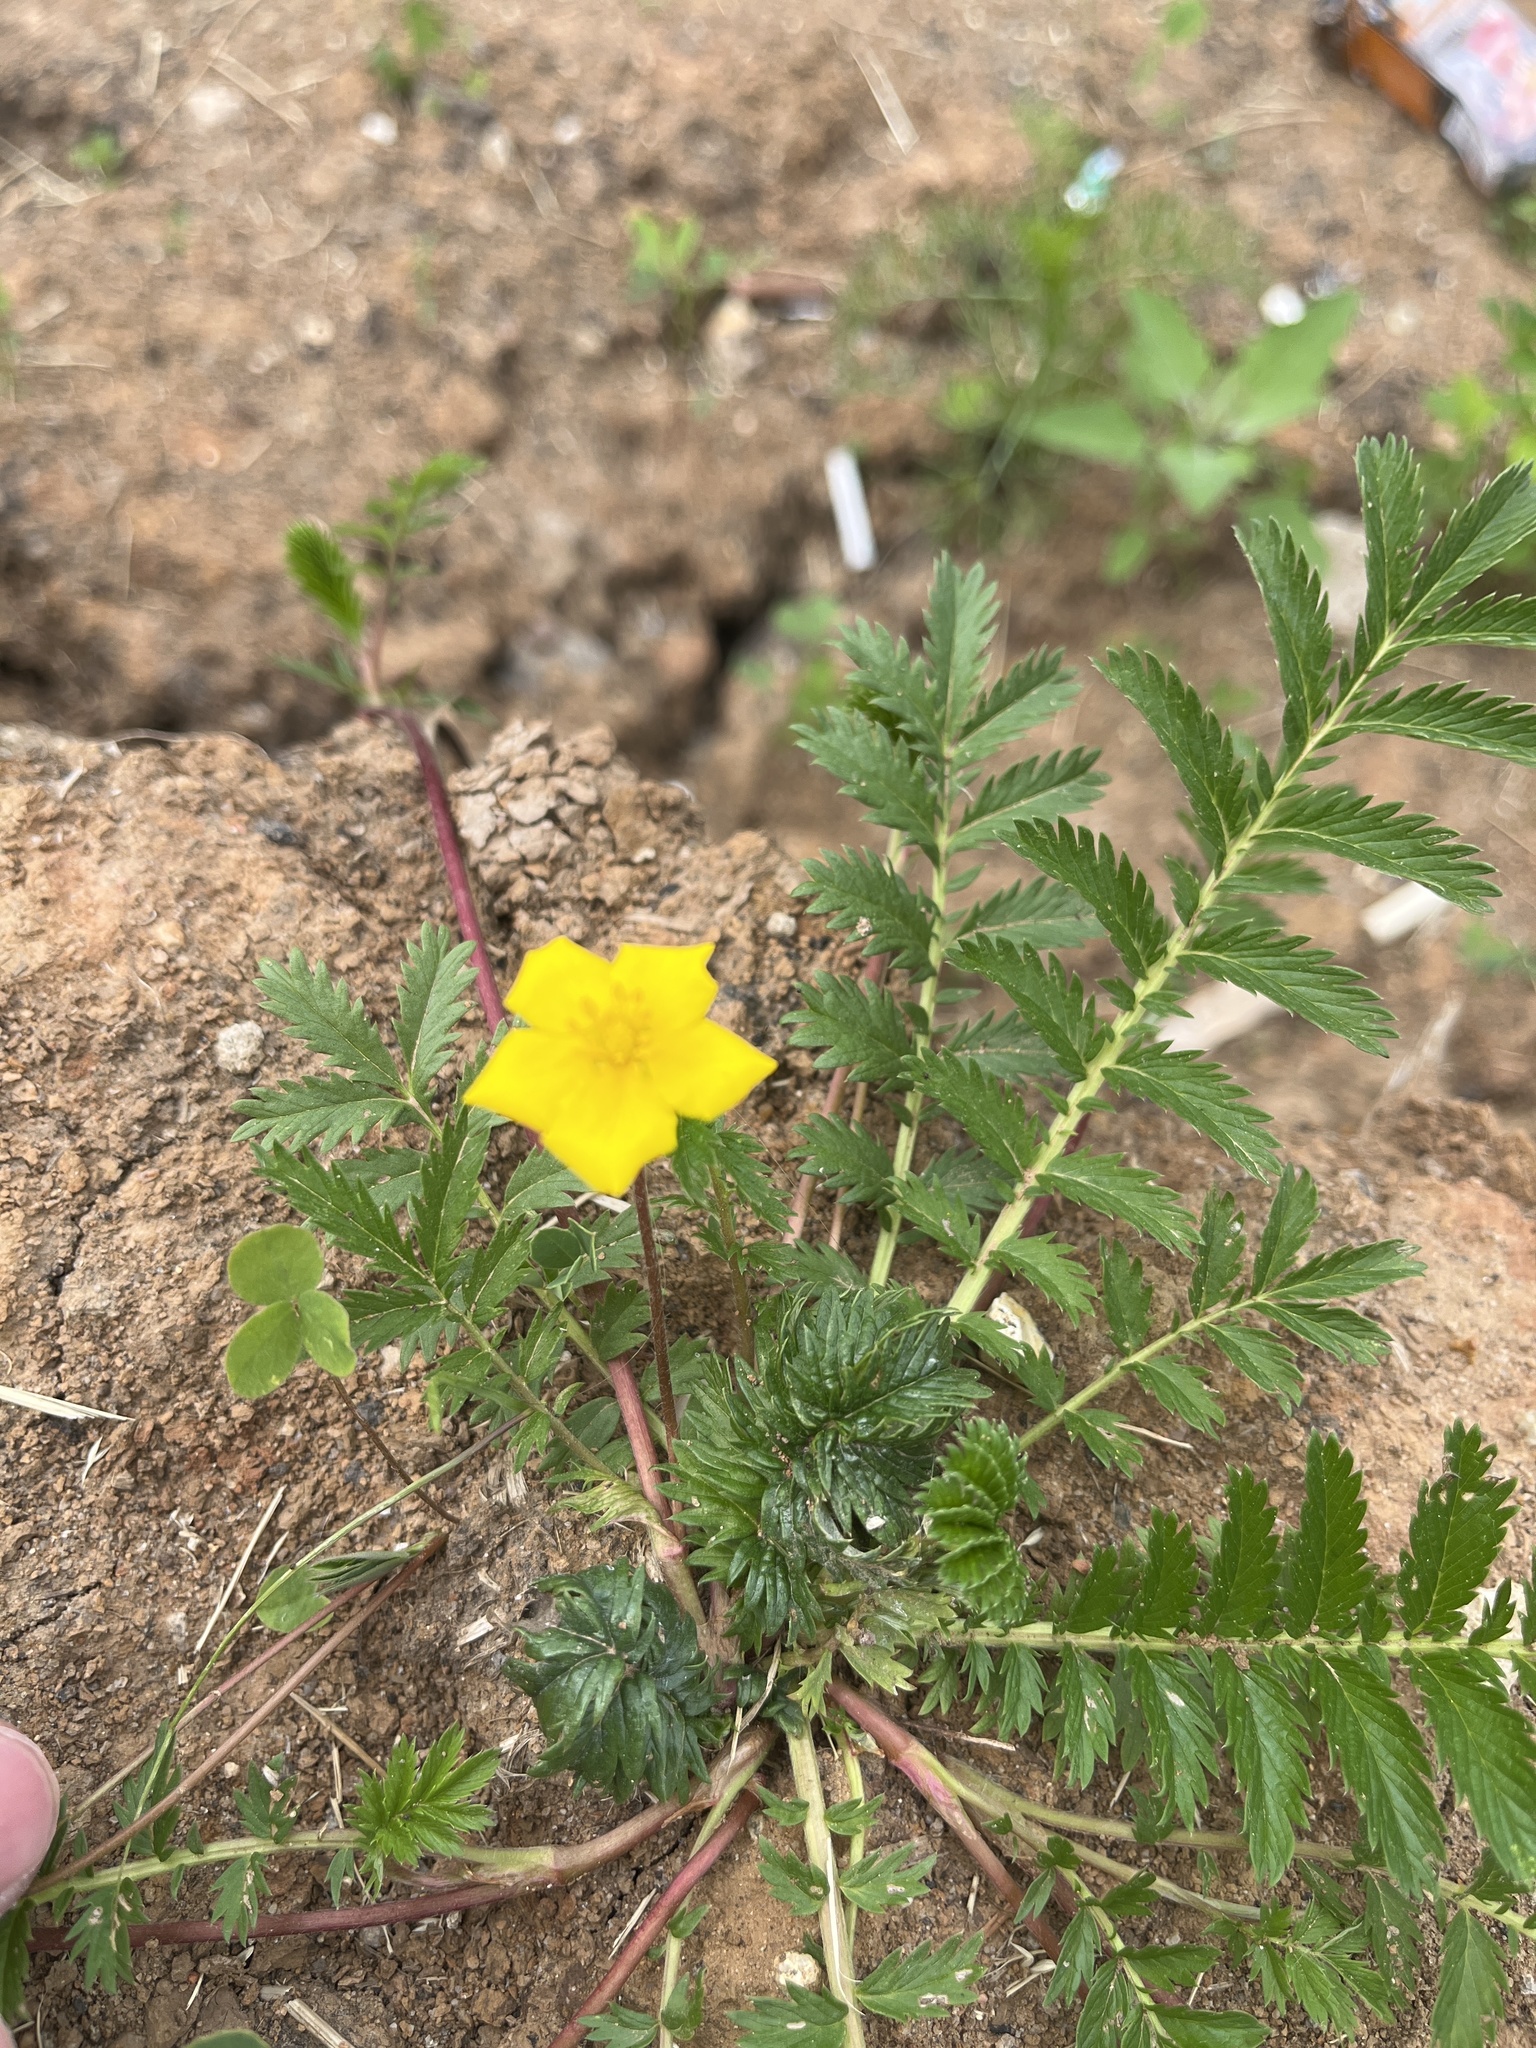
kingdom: Plantae
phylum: Tracheophyta
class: Magnoliopsida
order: Rosales
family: Rosaceae
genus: Argentina
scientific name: Argentina anserina
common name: Common silverweed
